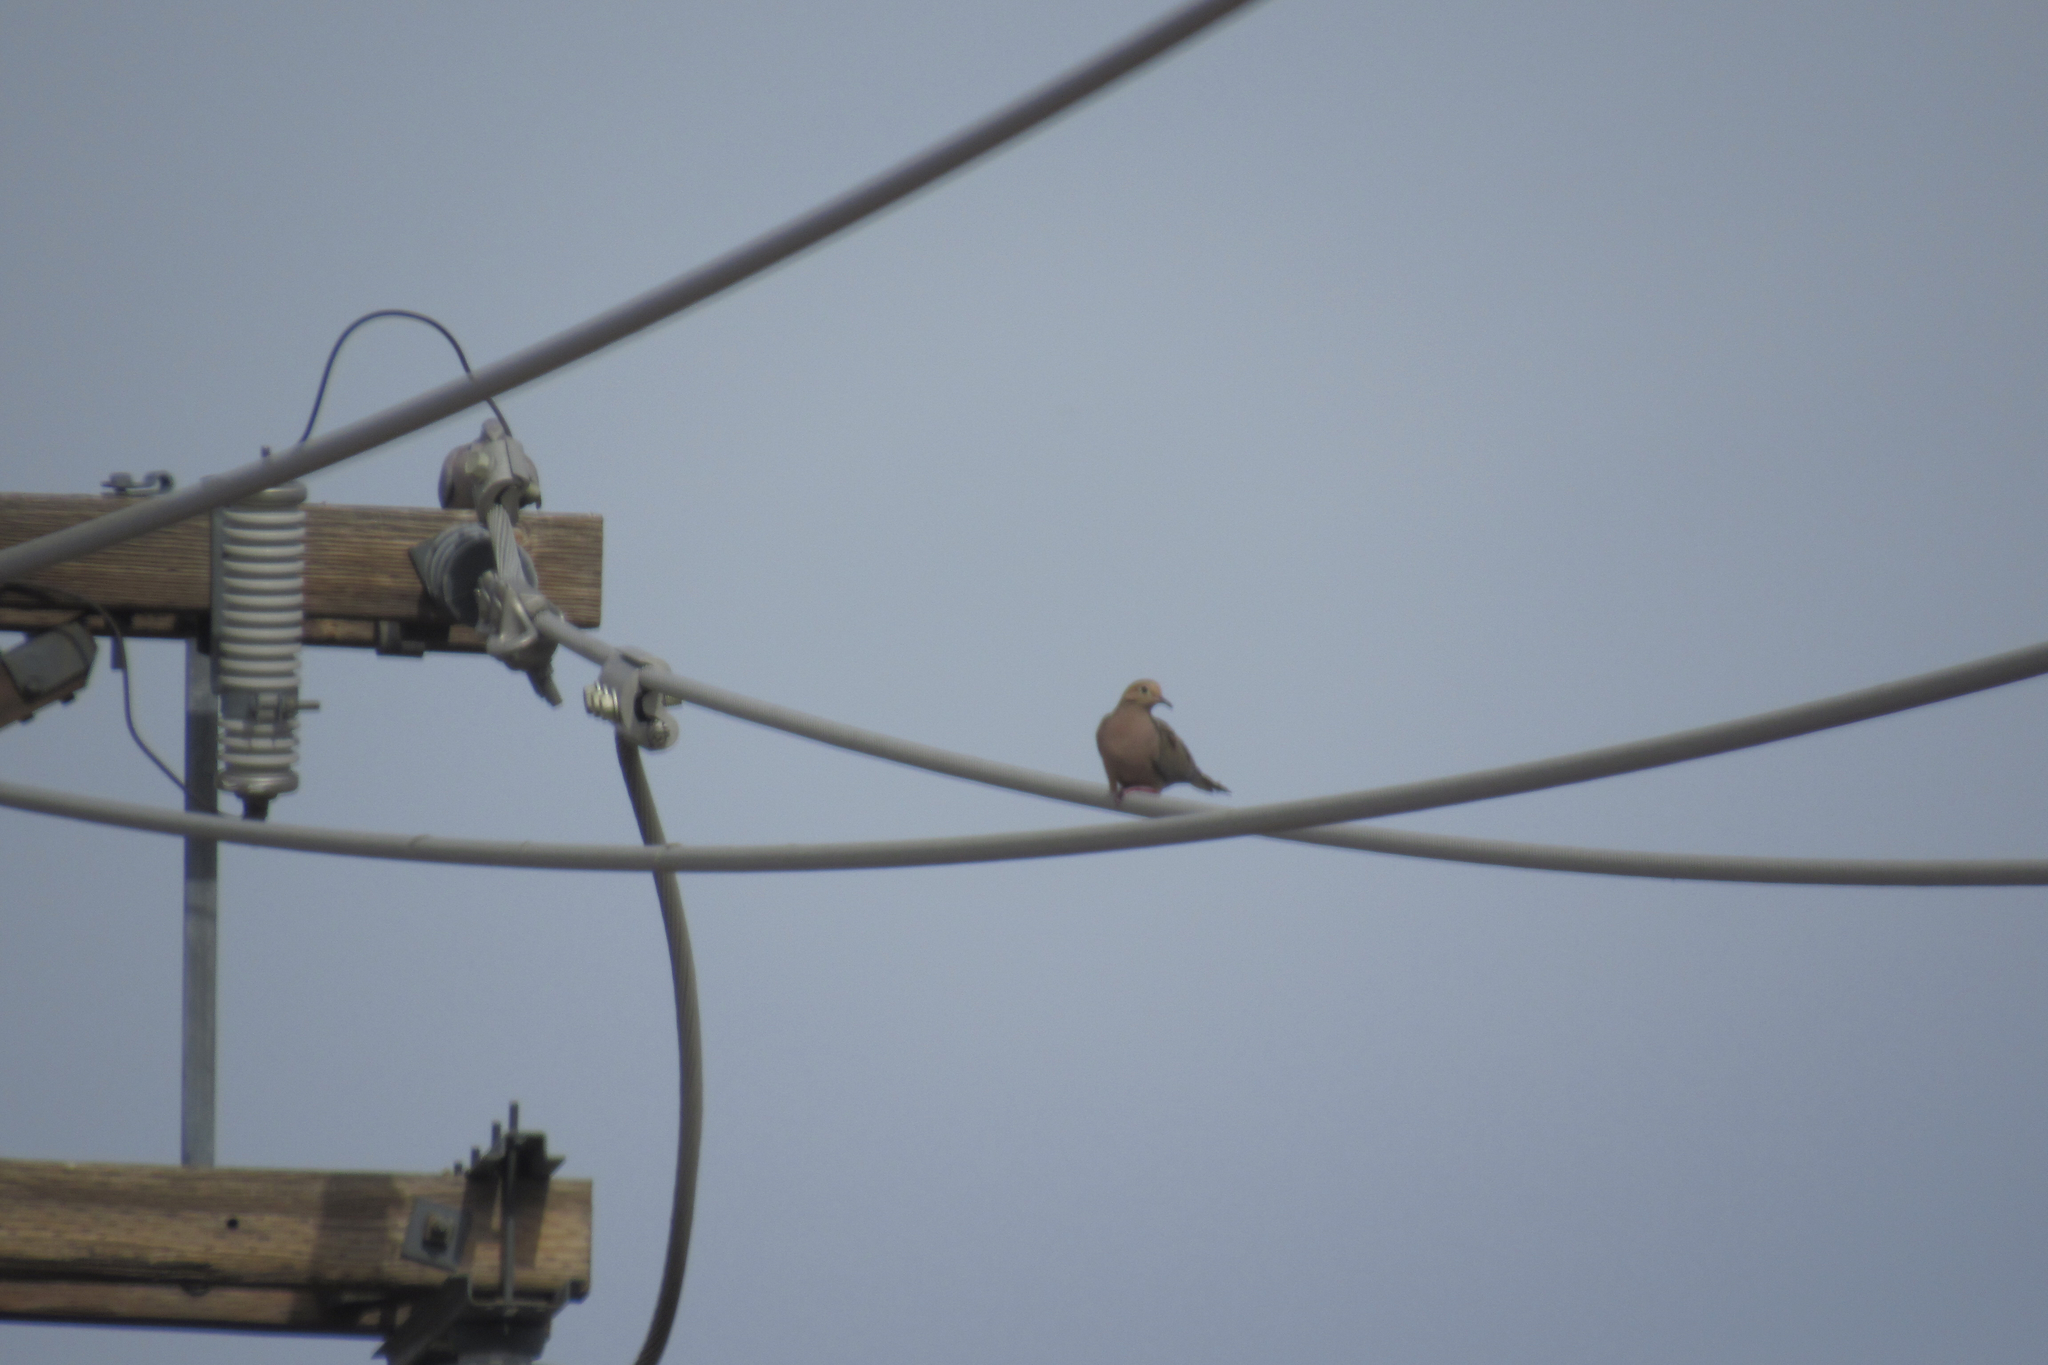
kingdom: Animalia
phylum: Chordata
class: Aves
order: Columbiformes
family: Columbidae
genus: Zenaida
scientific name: Zenaida macroura
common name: Mourning dove
